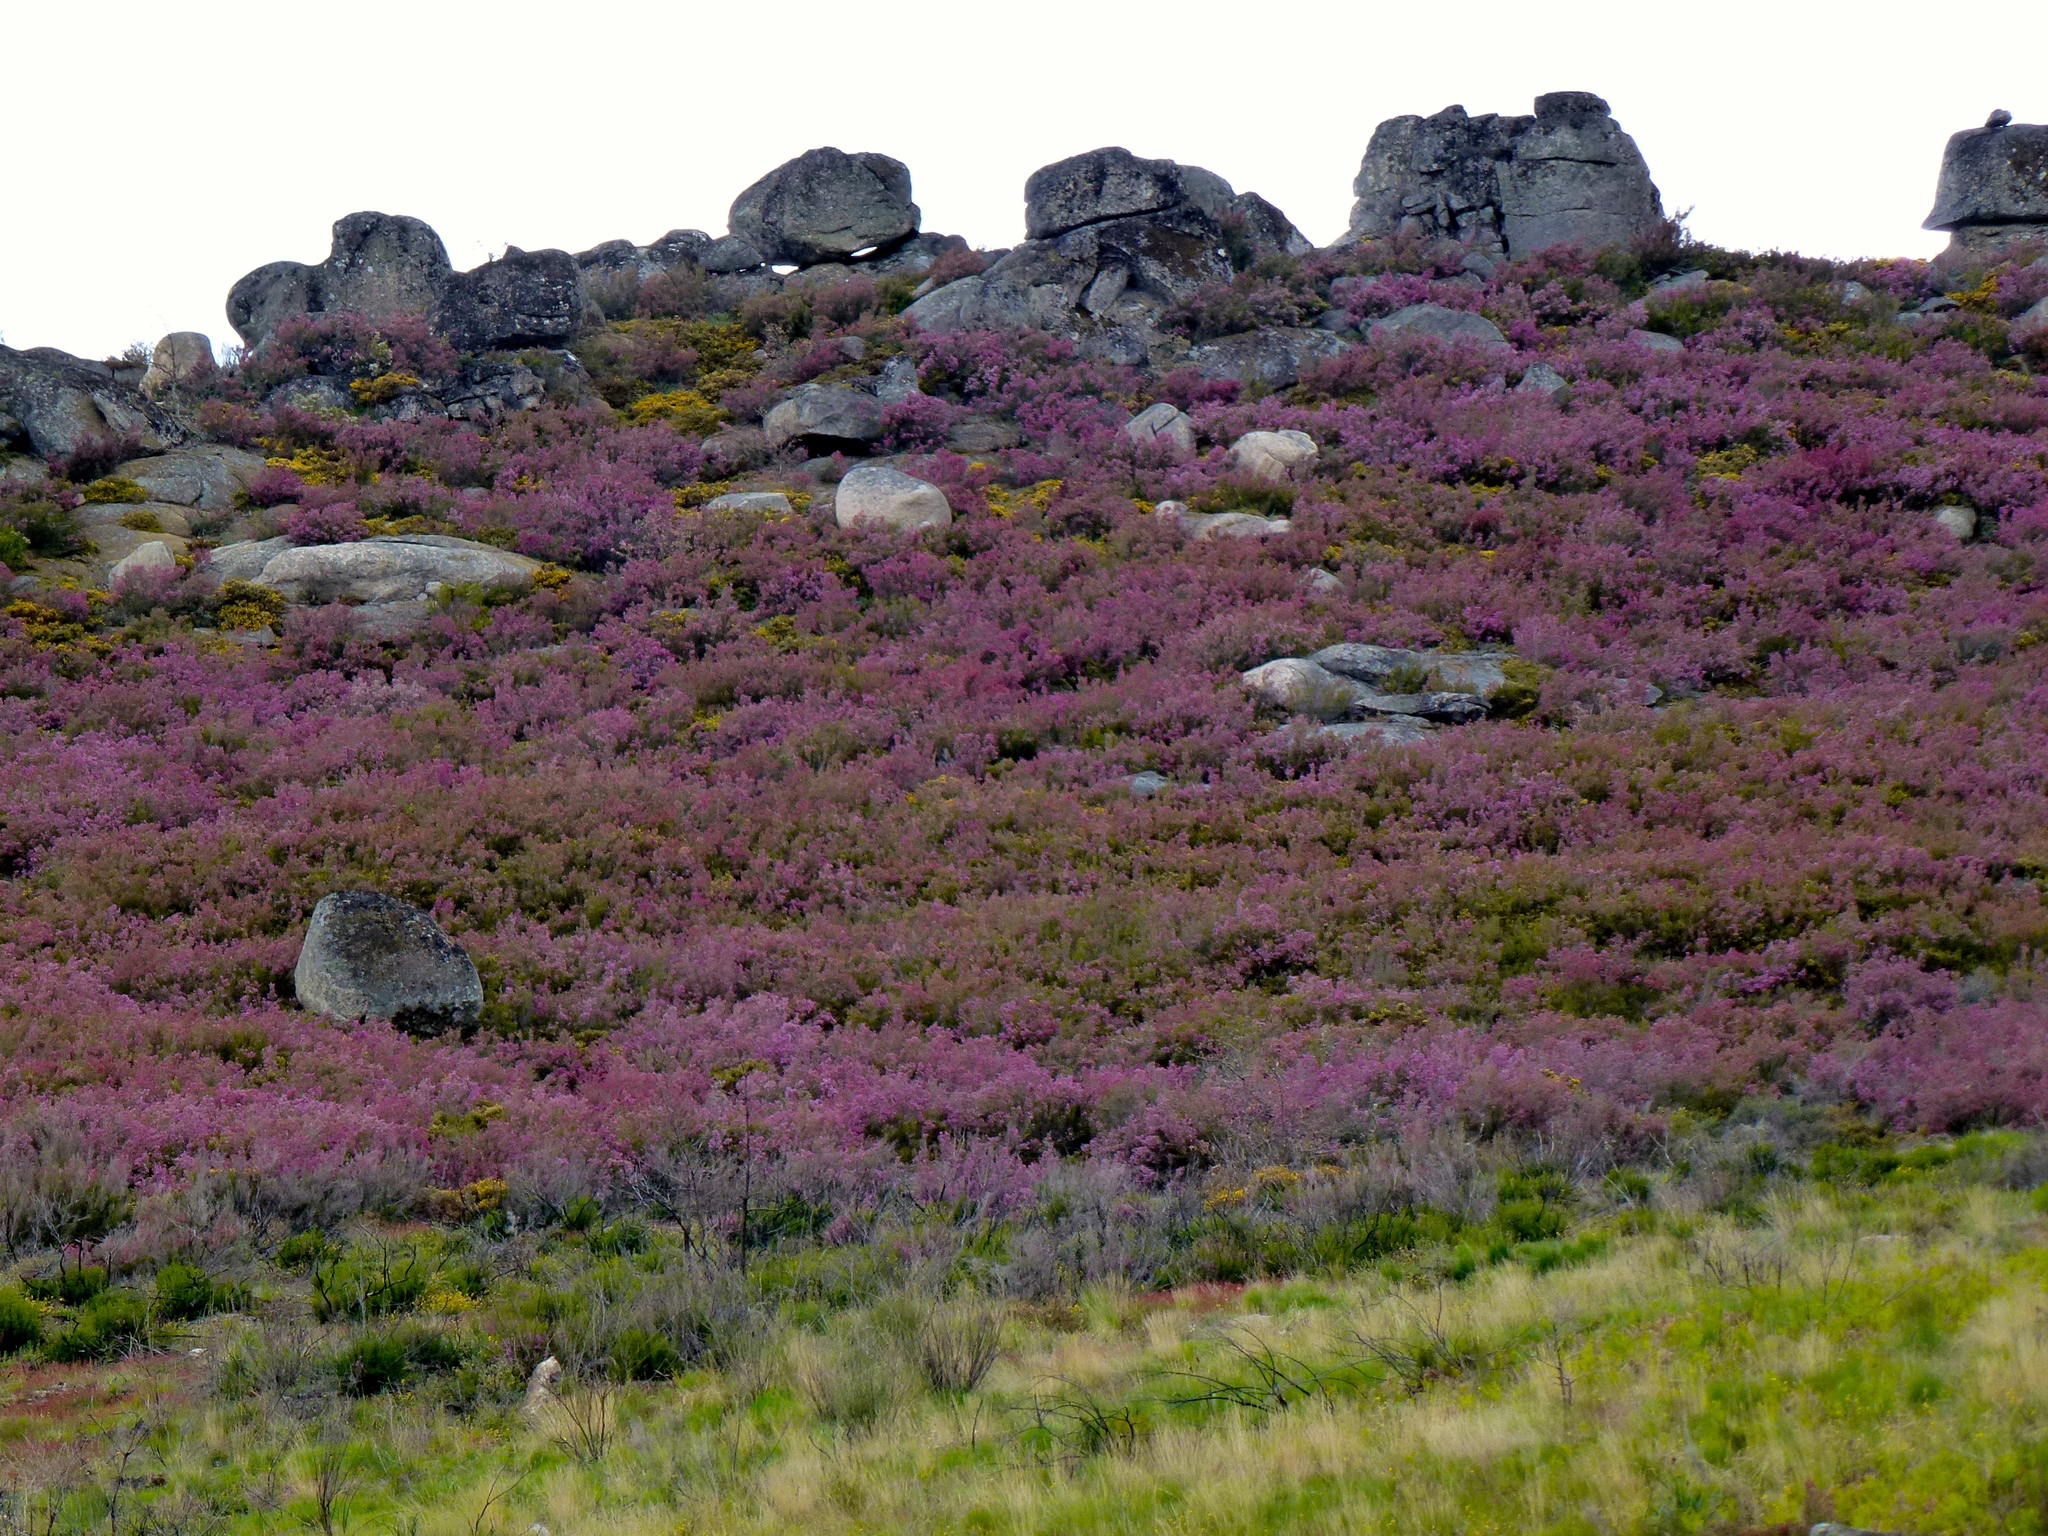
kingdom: Plantae
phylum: Tracheophyta
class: Magnoliopsida
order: Ericales
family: Ericaceae
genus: Calluna
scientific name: Calluna vulgaris
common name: Heather
